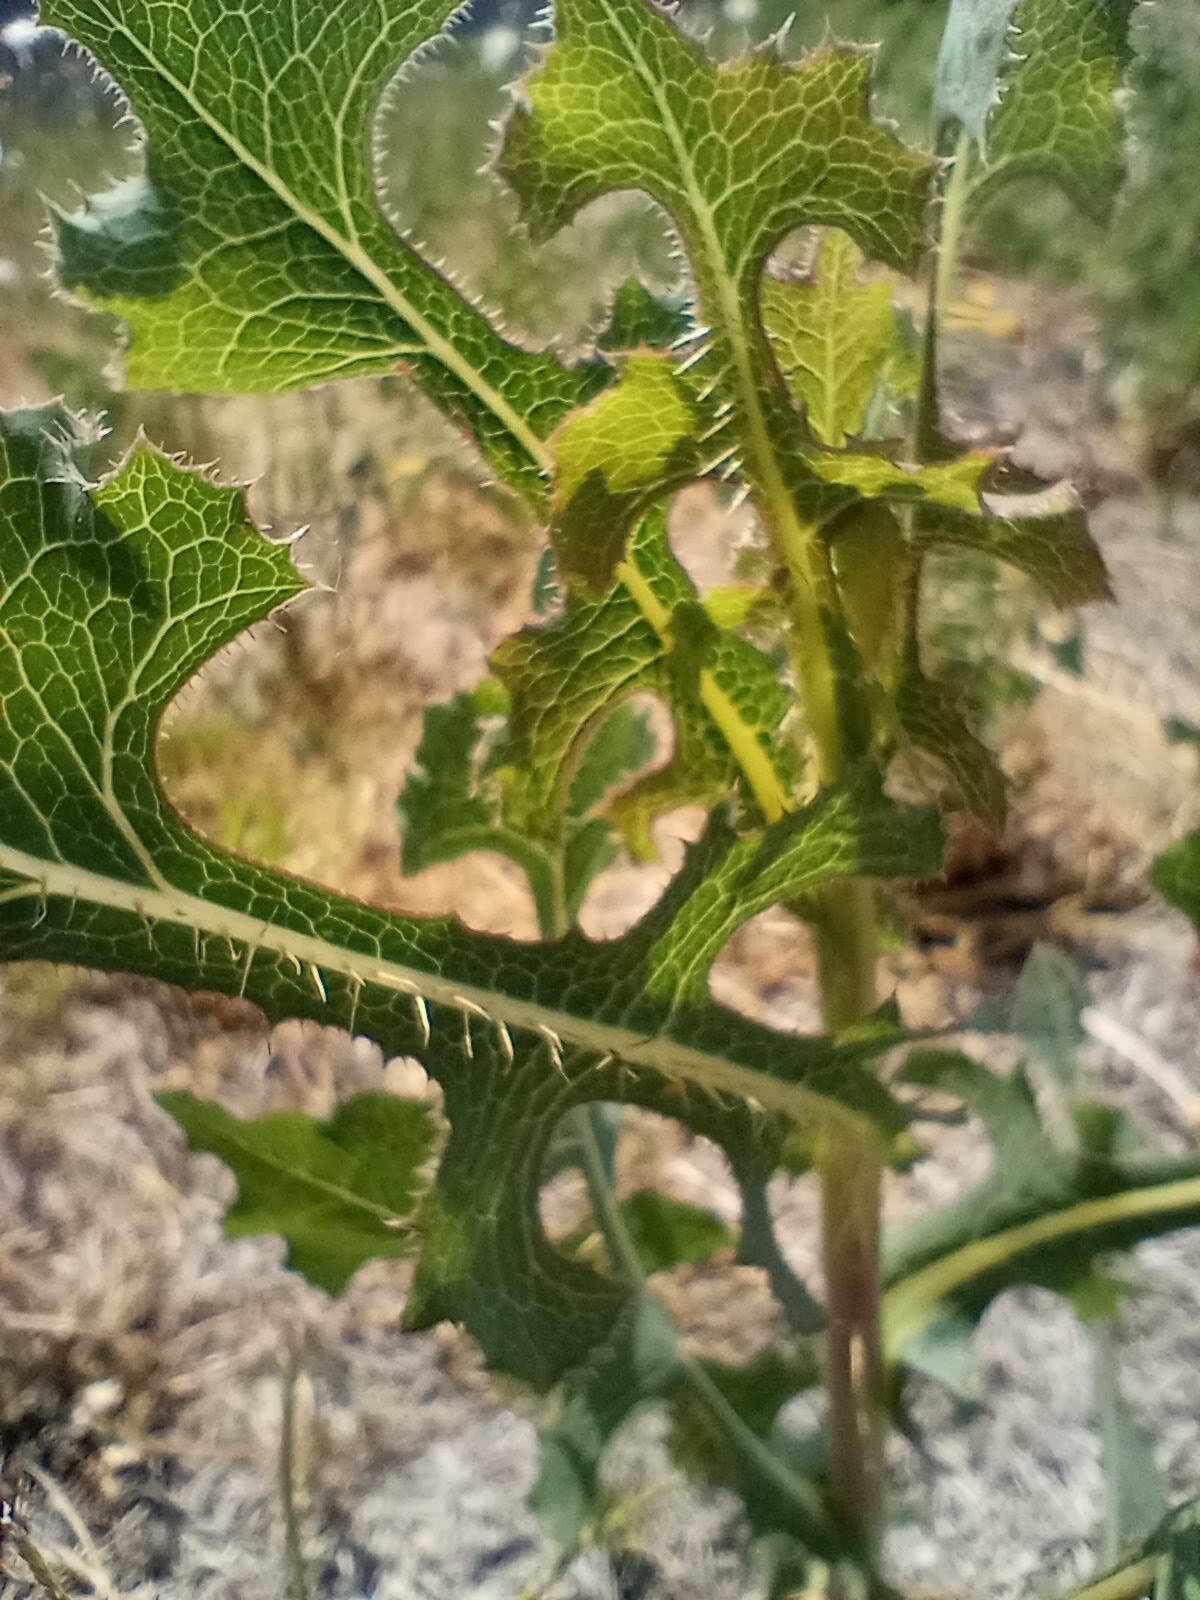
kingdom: Plantae
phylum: Tracheophyta
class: Magnoliopsida
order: Asterales
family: Asteraceae
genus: Lactuca
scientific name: Lactuca serriola
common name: Prickly lettuce
